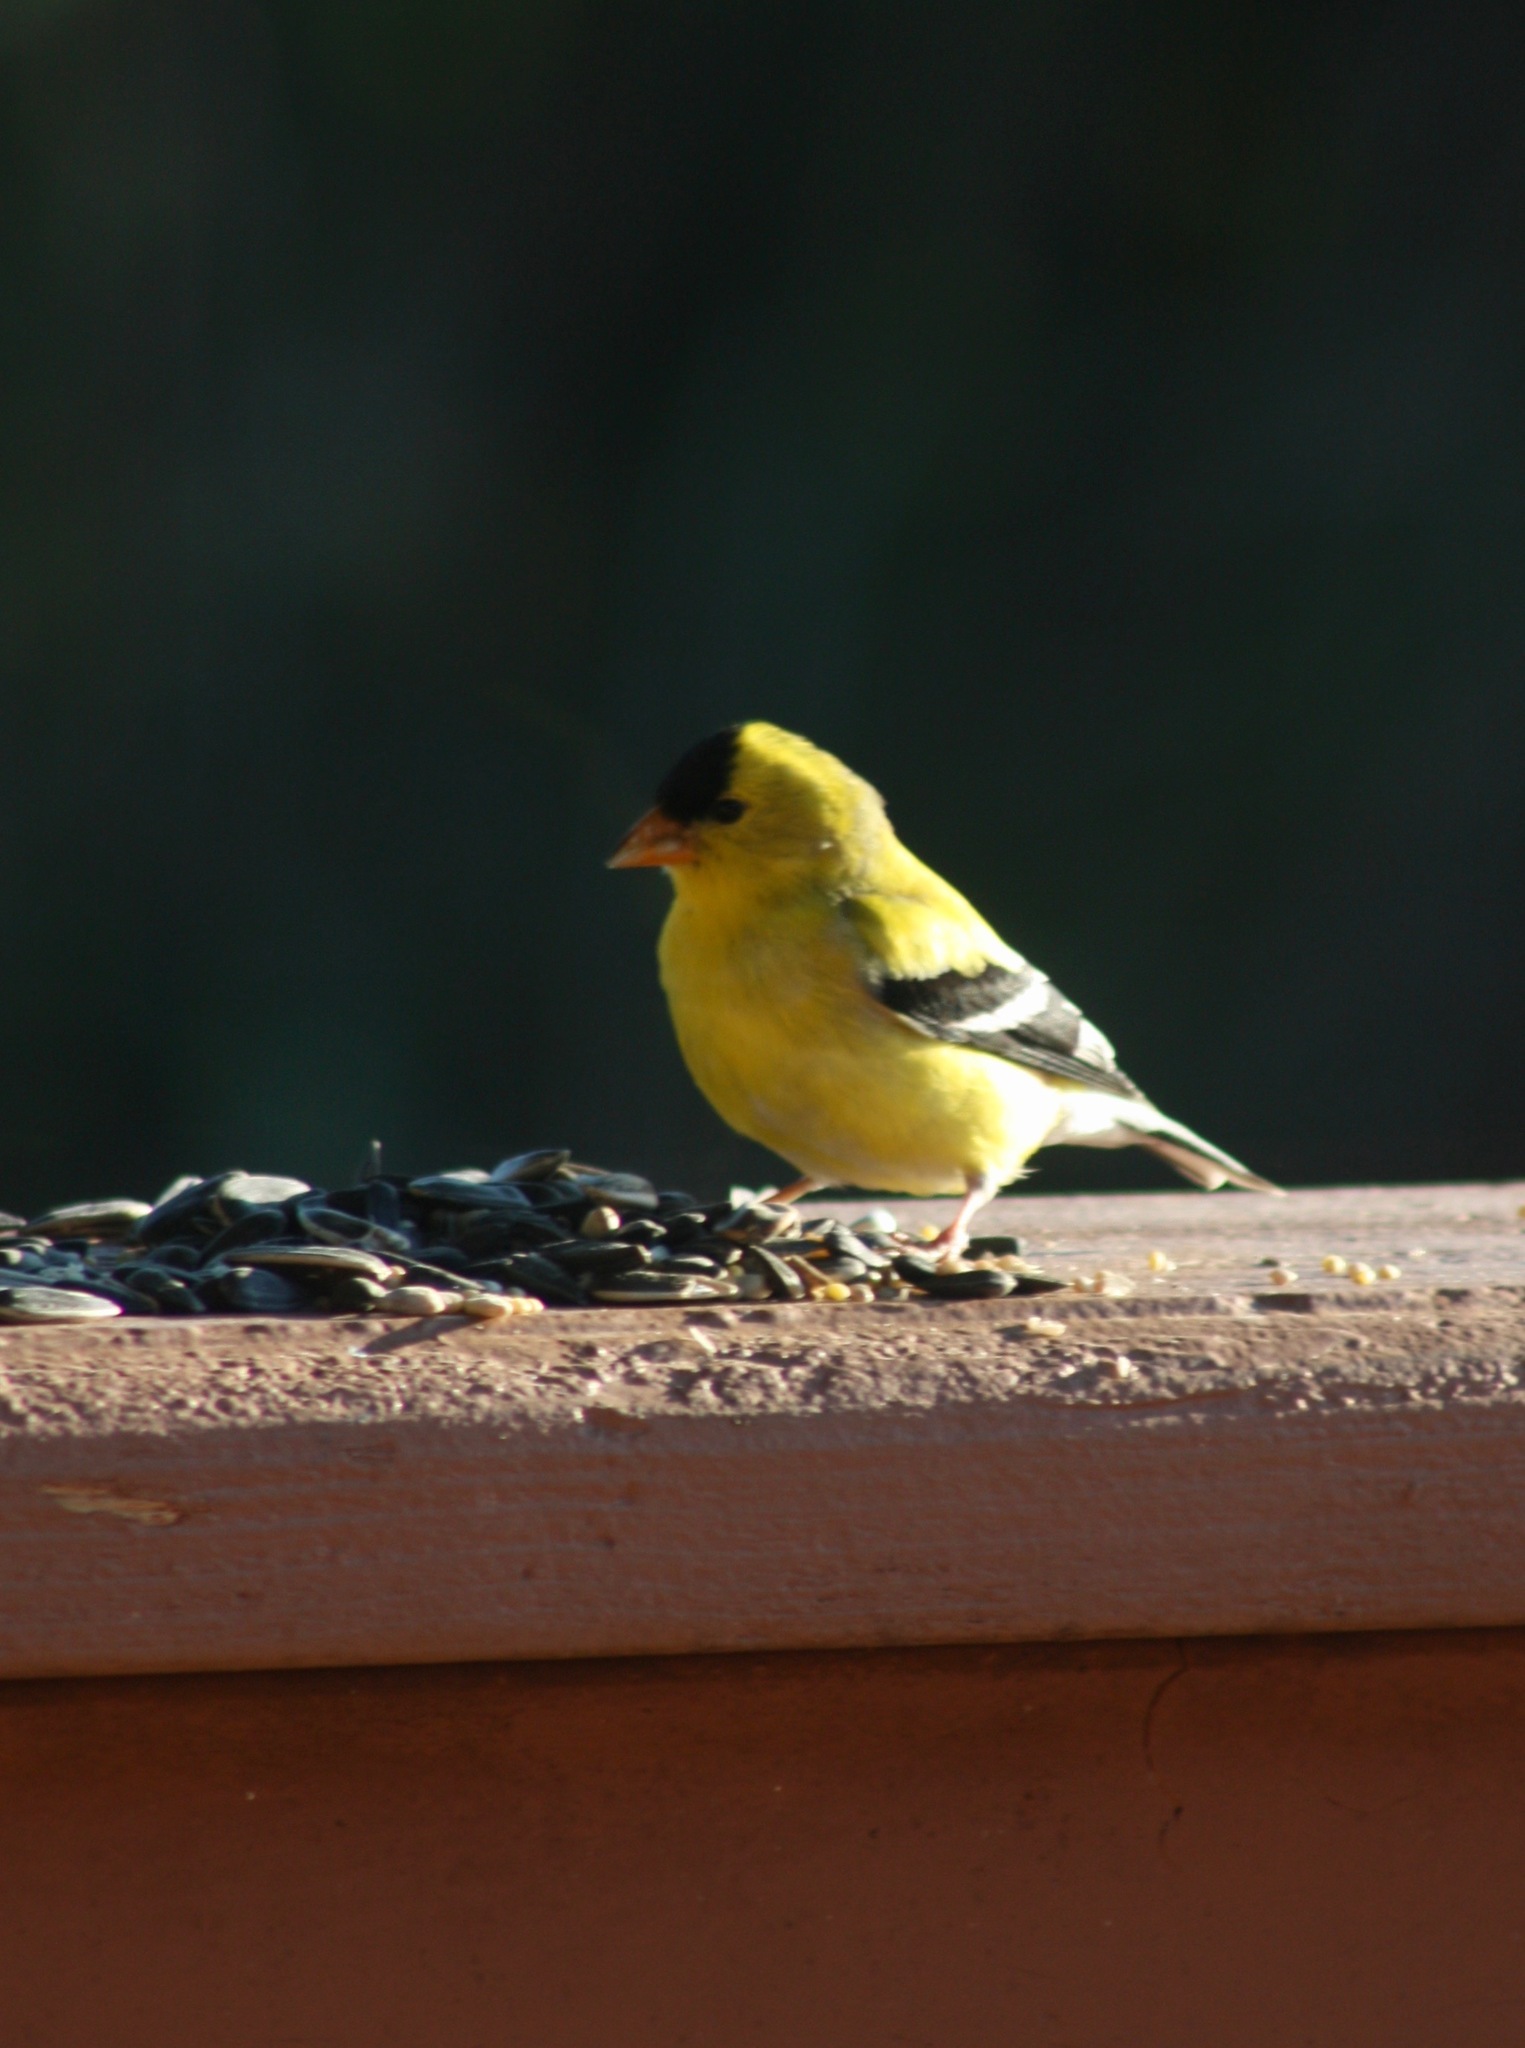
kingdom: Animalia
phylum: Chordata
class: Aves
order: Passeriformes
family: Fringillidae
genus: Spinus
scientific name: Spinus tristis
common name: American goldfinch
